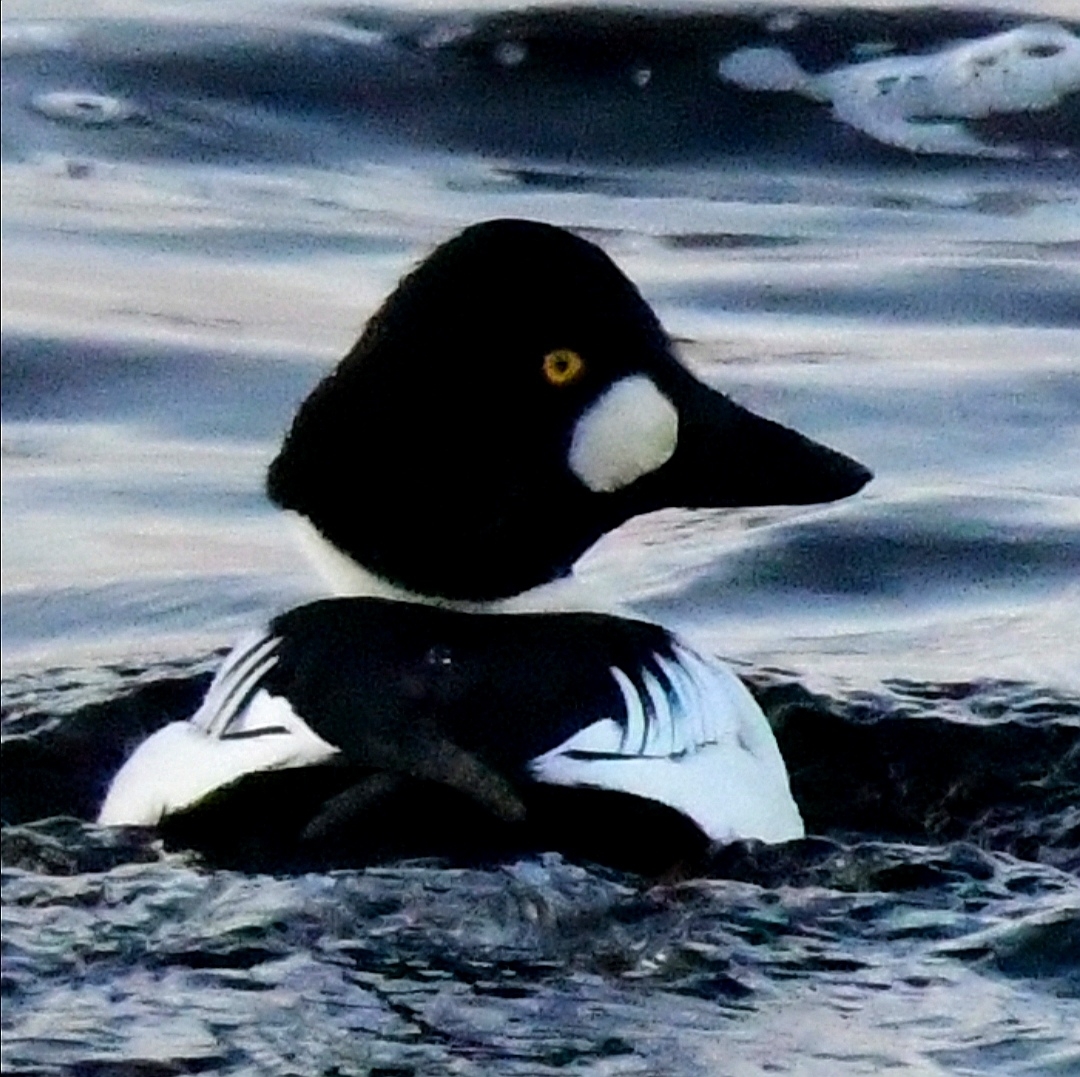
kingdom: Animalia
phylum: Chordata
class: Aves
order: Anseriformes
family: Anatidae
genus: Bucephala
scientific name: Bucephala clangula
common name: Common goldeneye
